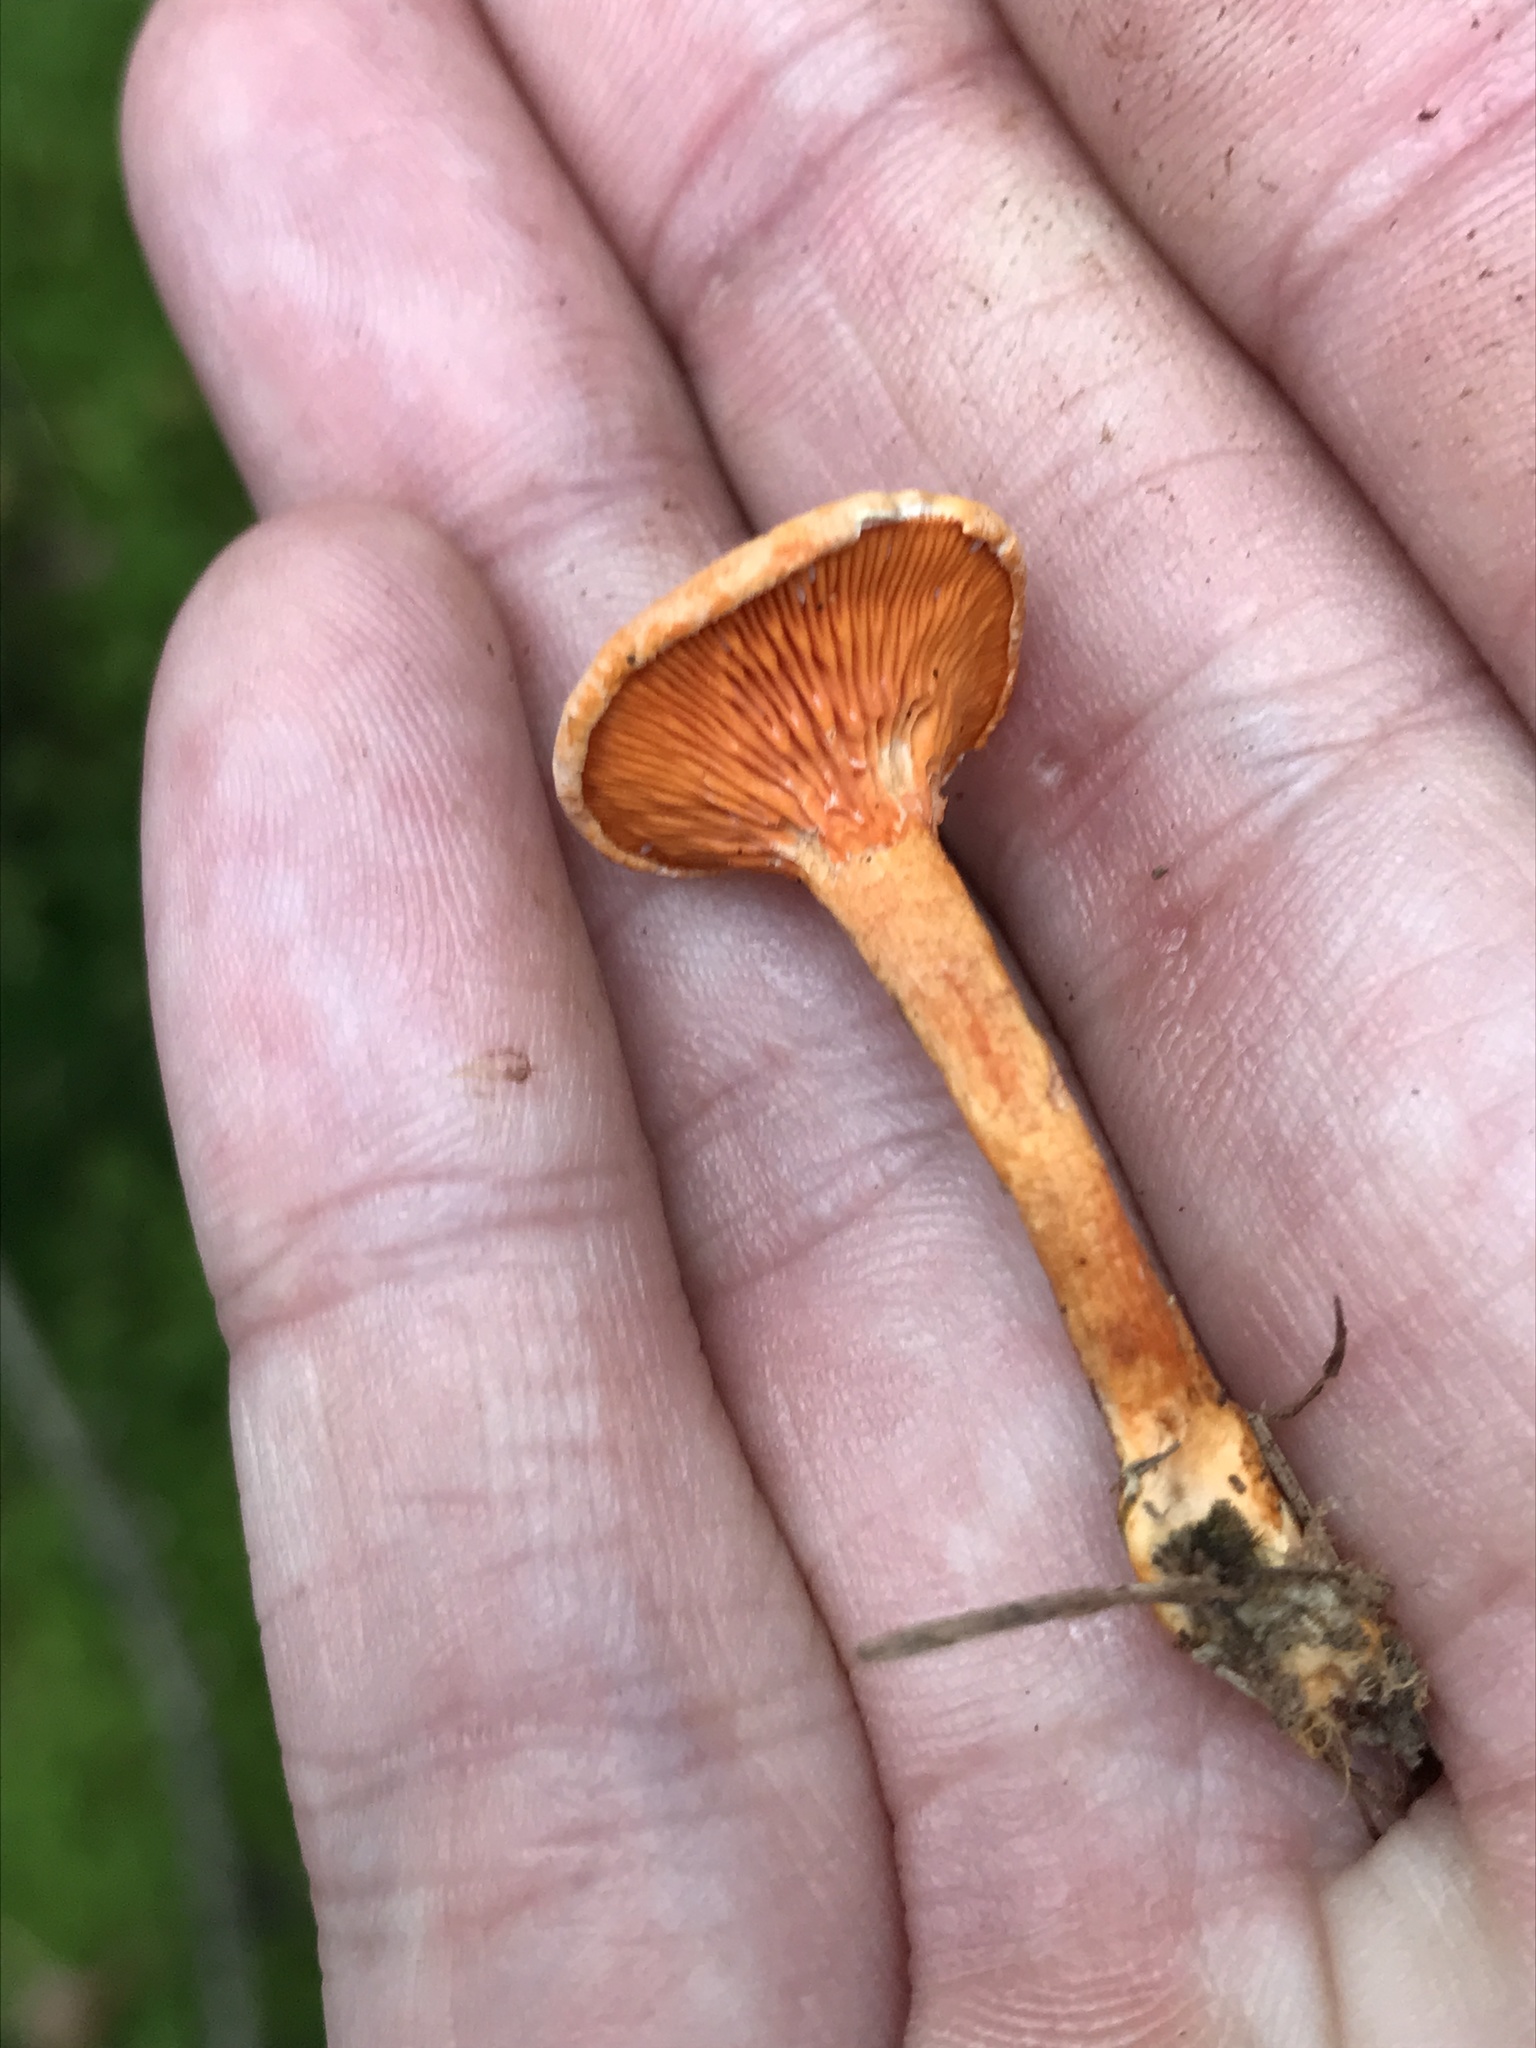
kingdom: Fungi
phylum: Basidiomycota
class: Agaricomycetes
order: Boletales
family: Hygrophoropsidaceae
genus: Hygrophoropsis
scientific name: Hygrophoropsis aurantiaca
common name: False chanterelle
